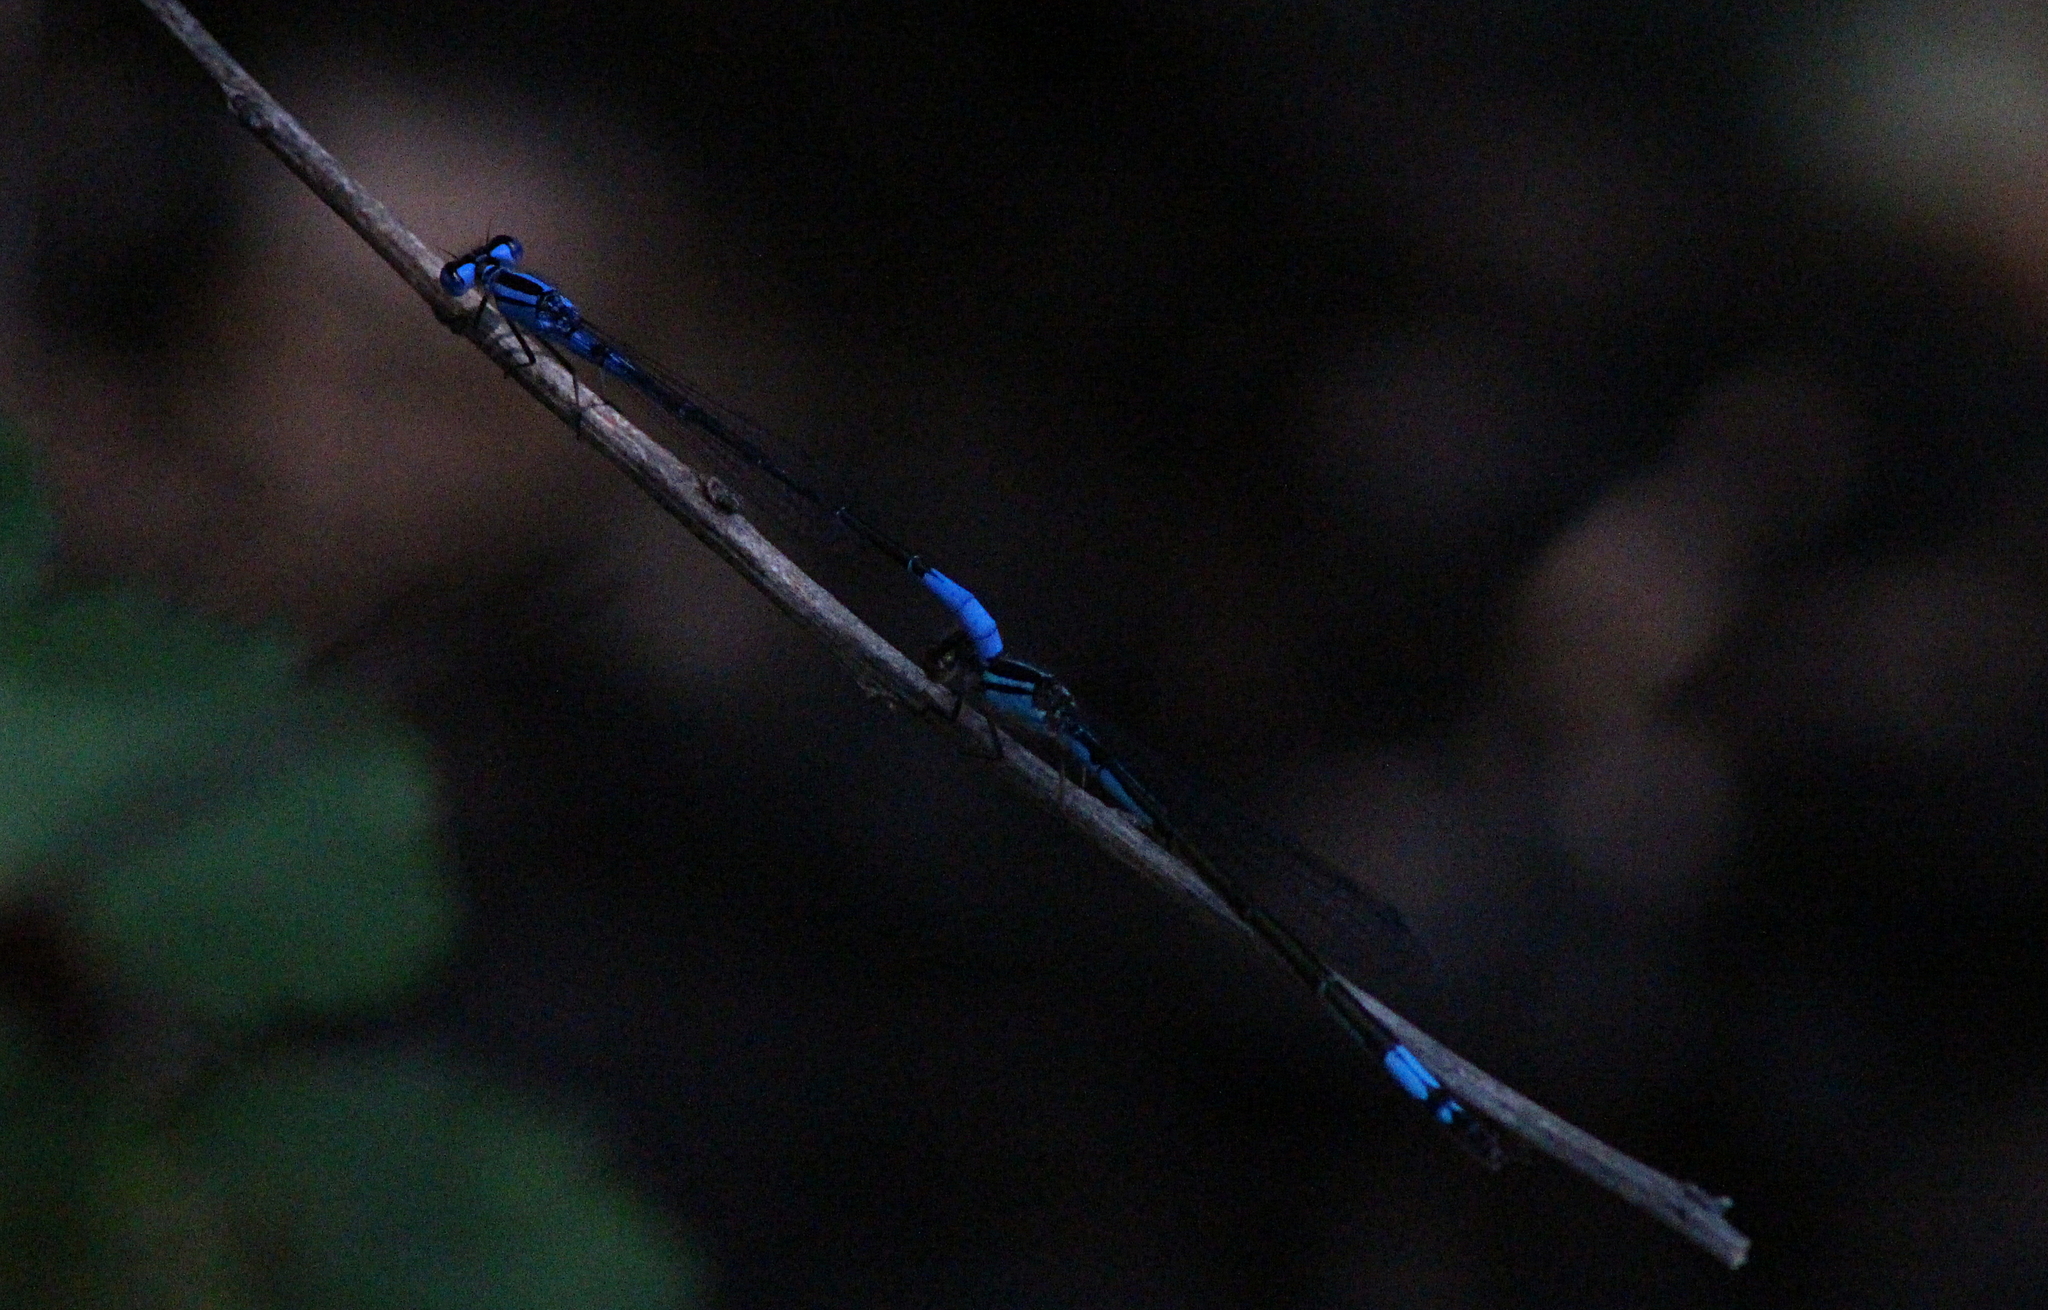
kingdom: Animalia
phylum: Arthropoda
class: Insecta
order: Odonata
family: Coenagrionidae
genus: Enallagma
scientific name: Enallagma aspersum
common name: Azure bluet
